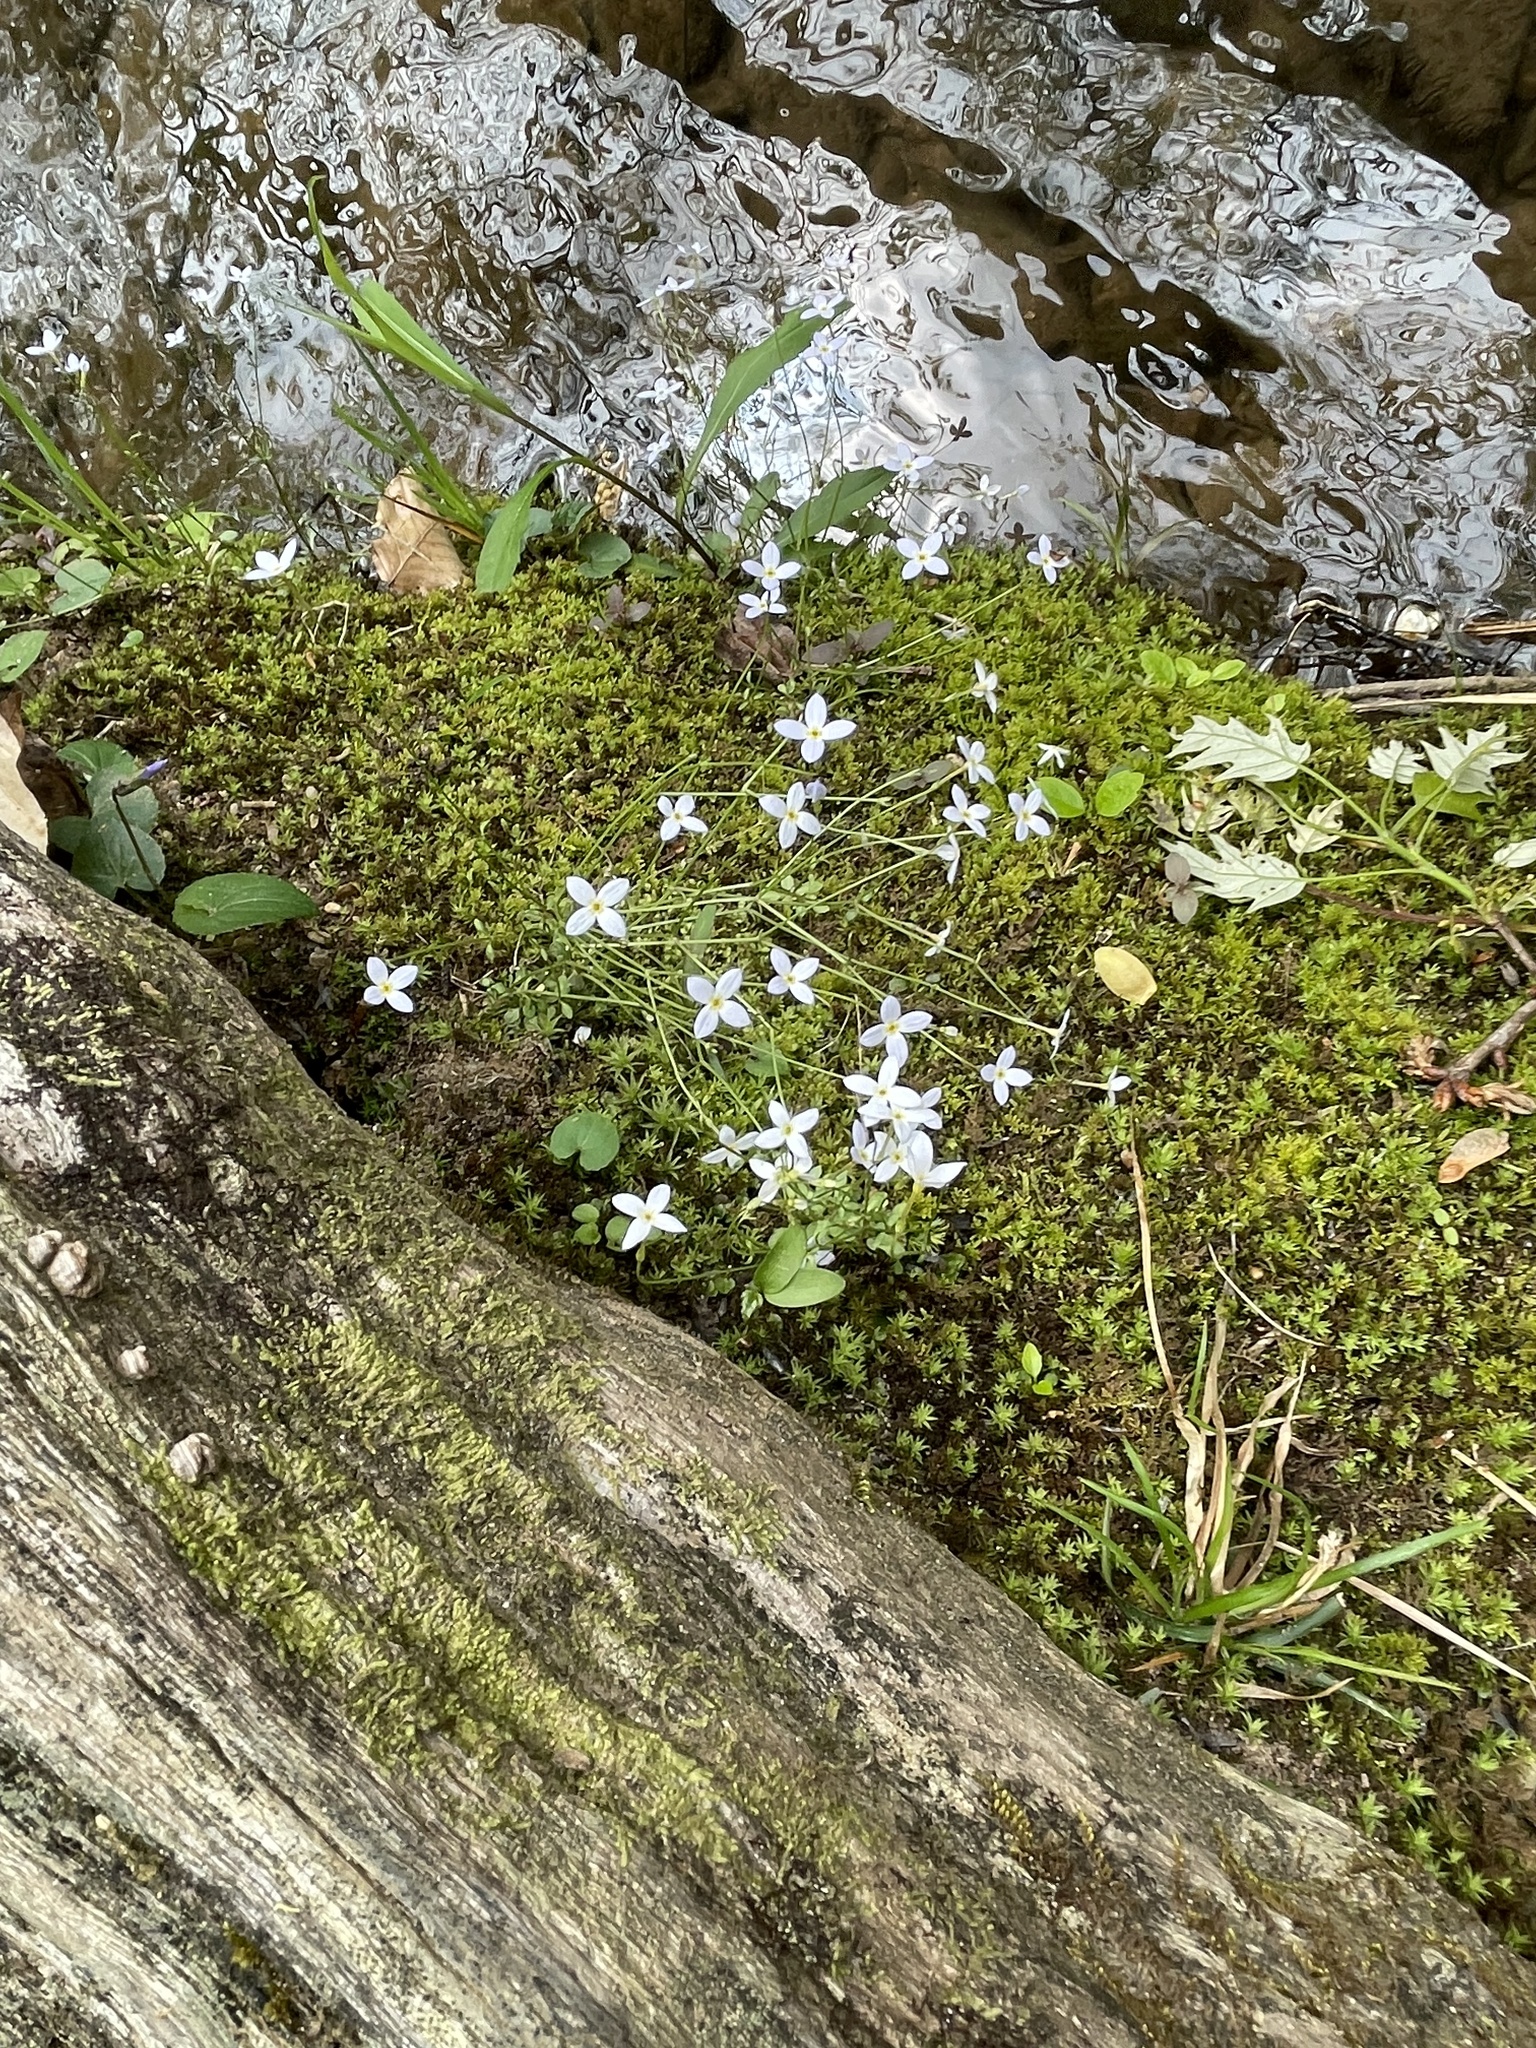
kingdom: Plantae
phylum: Tracheophyta
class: Magnoliopsida
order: Gentianales
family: Rubiaceae
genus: Houstonia
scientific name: Houstonia caerulea
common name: Bluets
